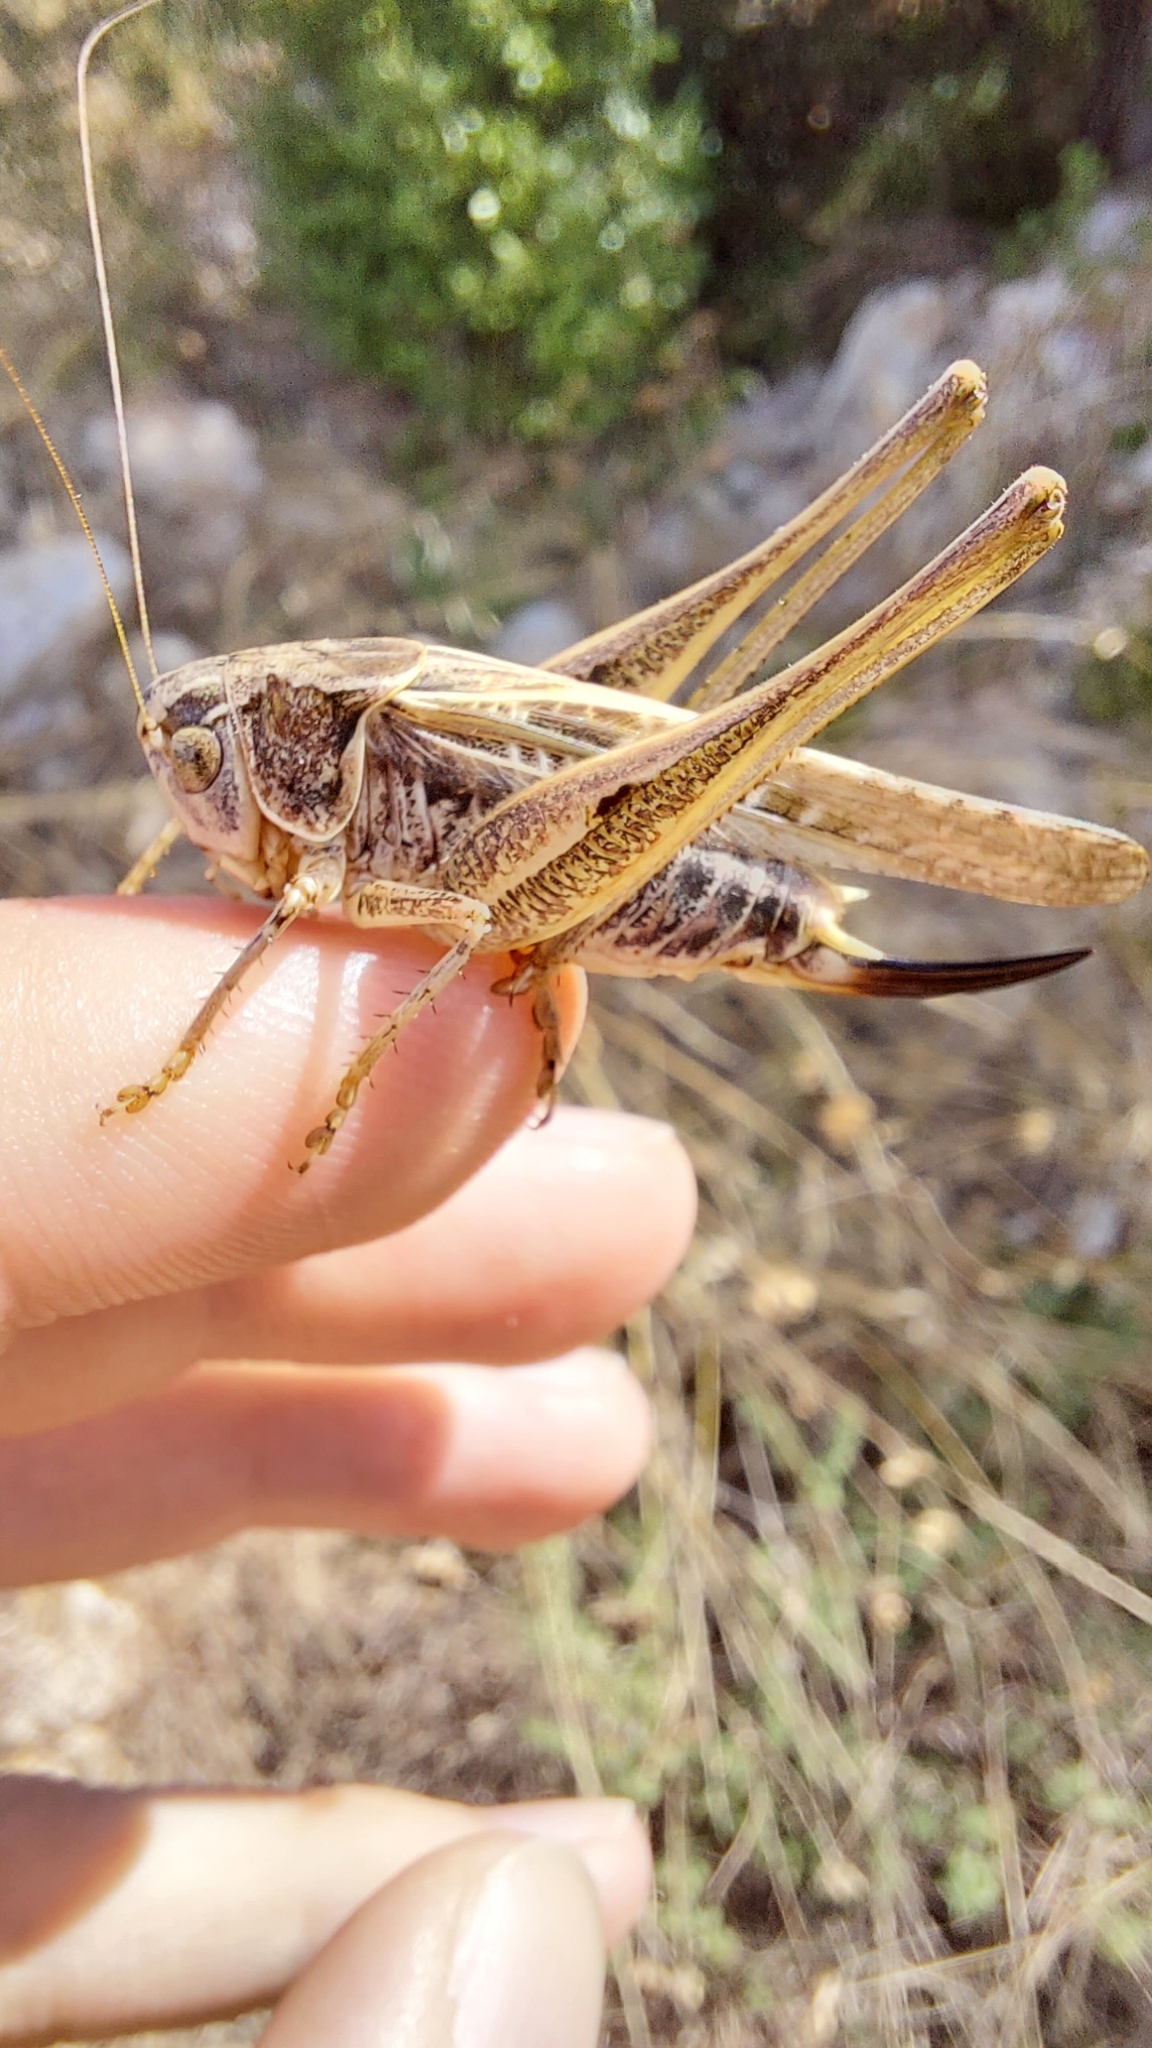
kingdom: Animalia
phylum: Arthropoda
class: Insecta
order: Orthoptera
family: Tettigoniidae
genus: Platycleis
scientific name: Platycleis affinis
